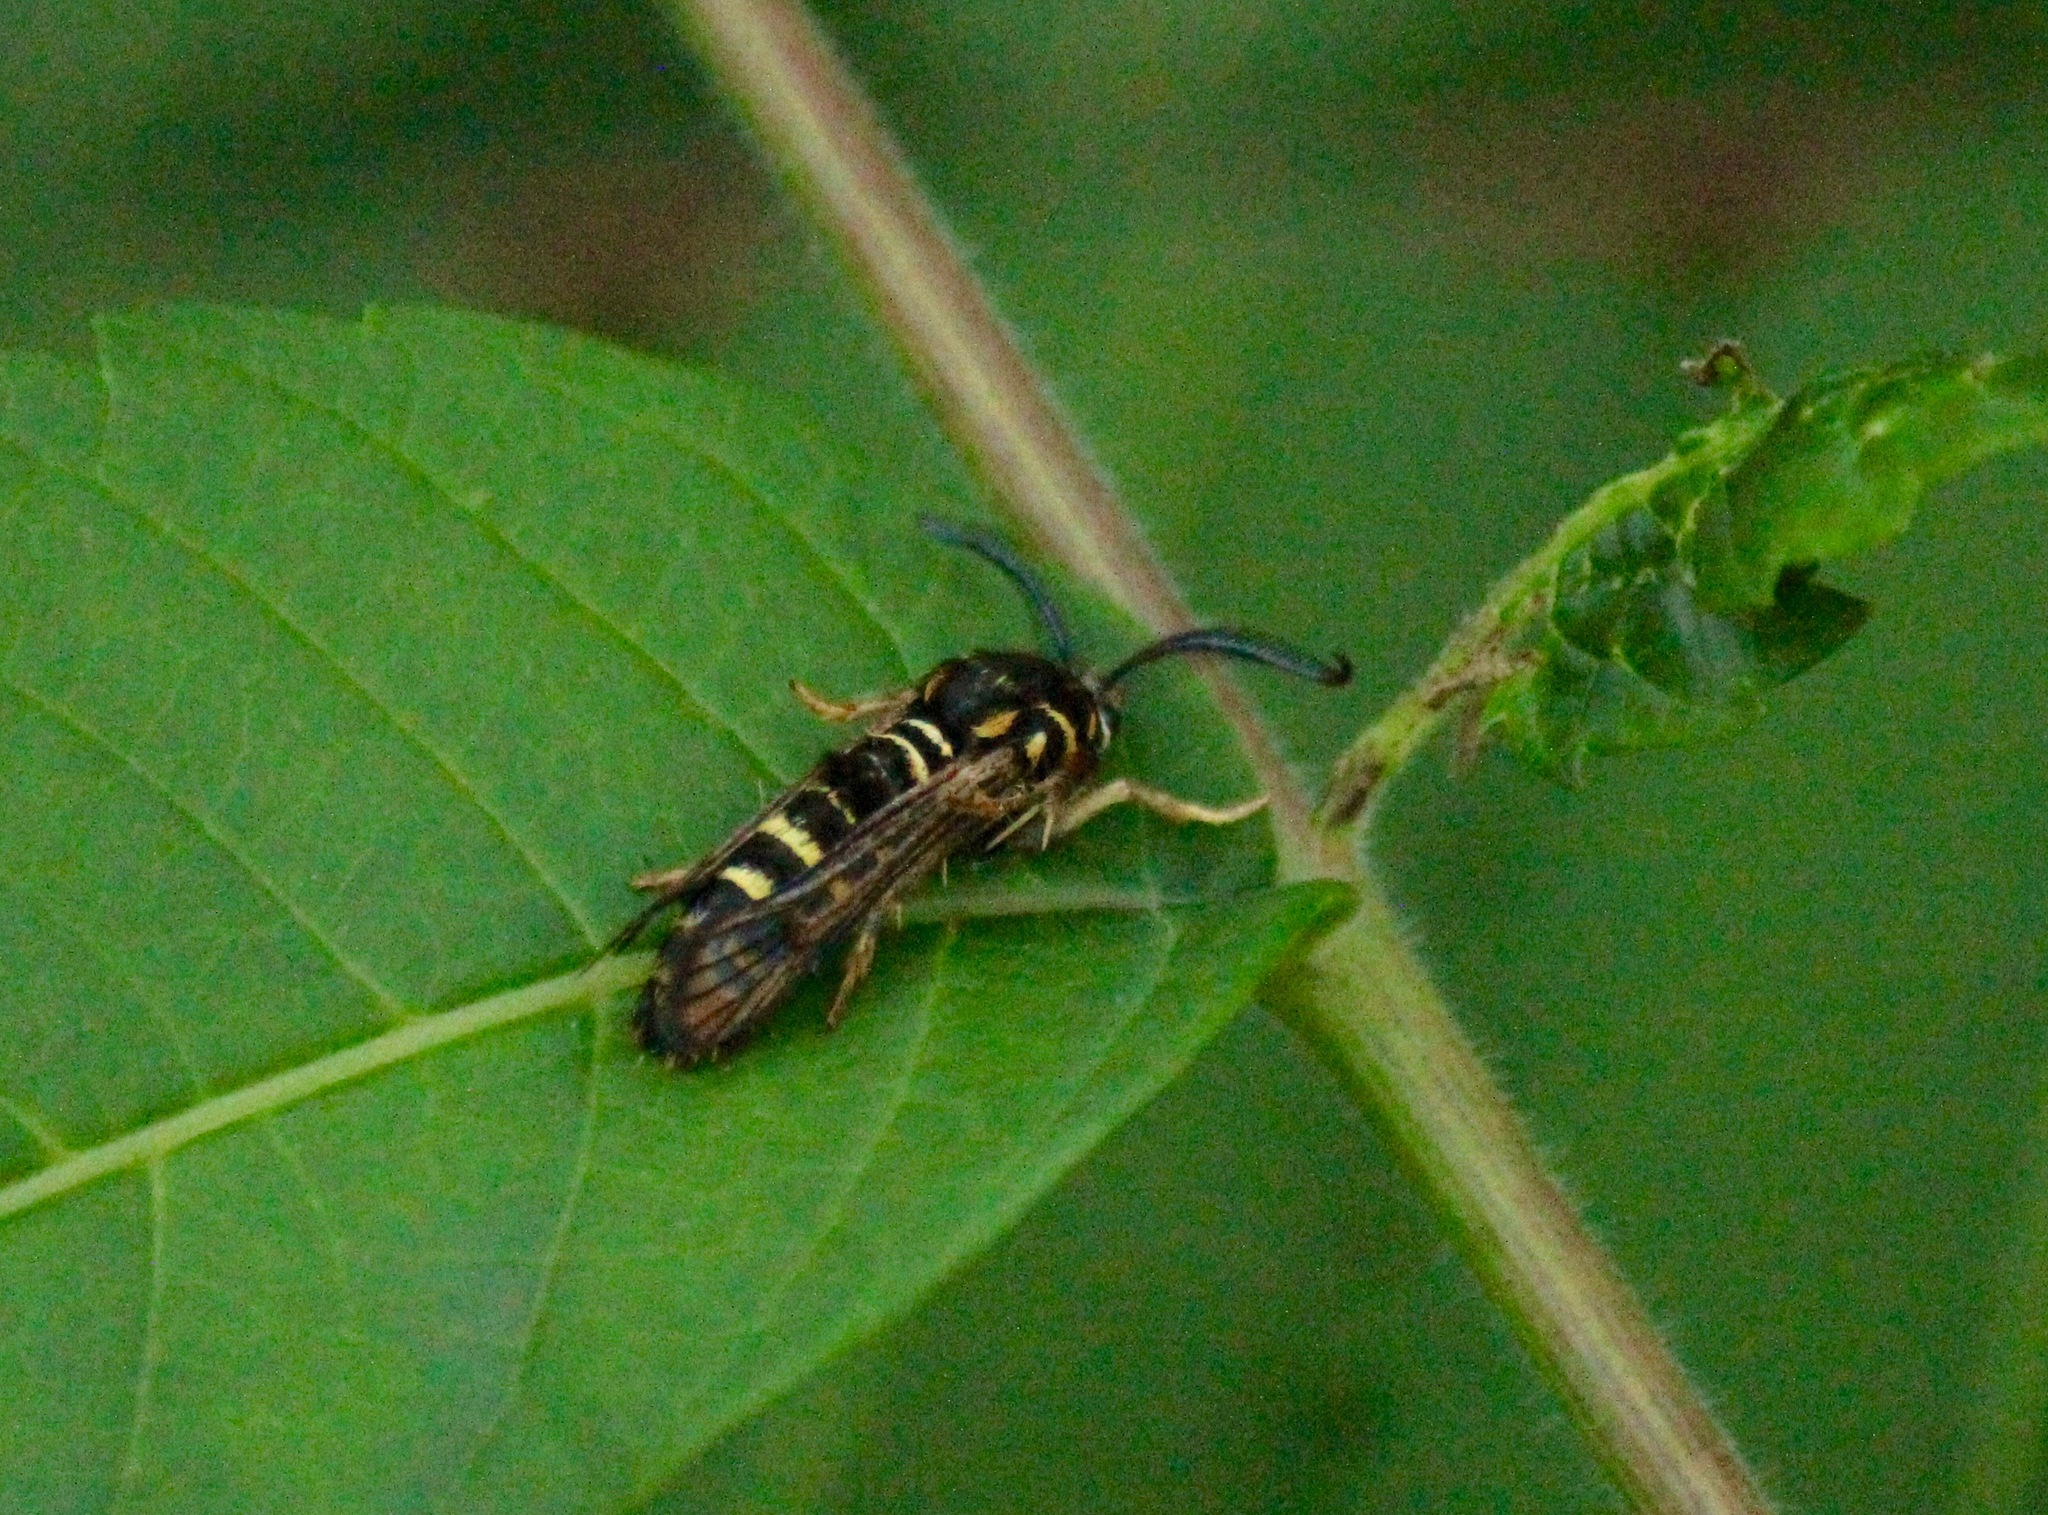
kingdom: Animalia
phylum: Arthropoda
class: Insecta
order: Lepidoptera
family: Sesiidae
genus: Pennisetia
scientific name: Pennisetia marginatum
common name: Raspberry crown borer
